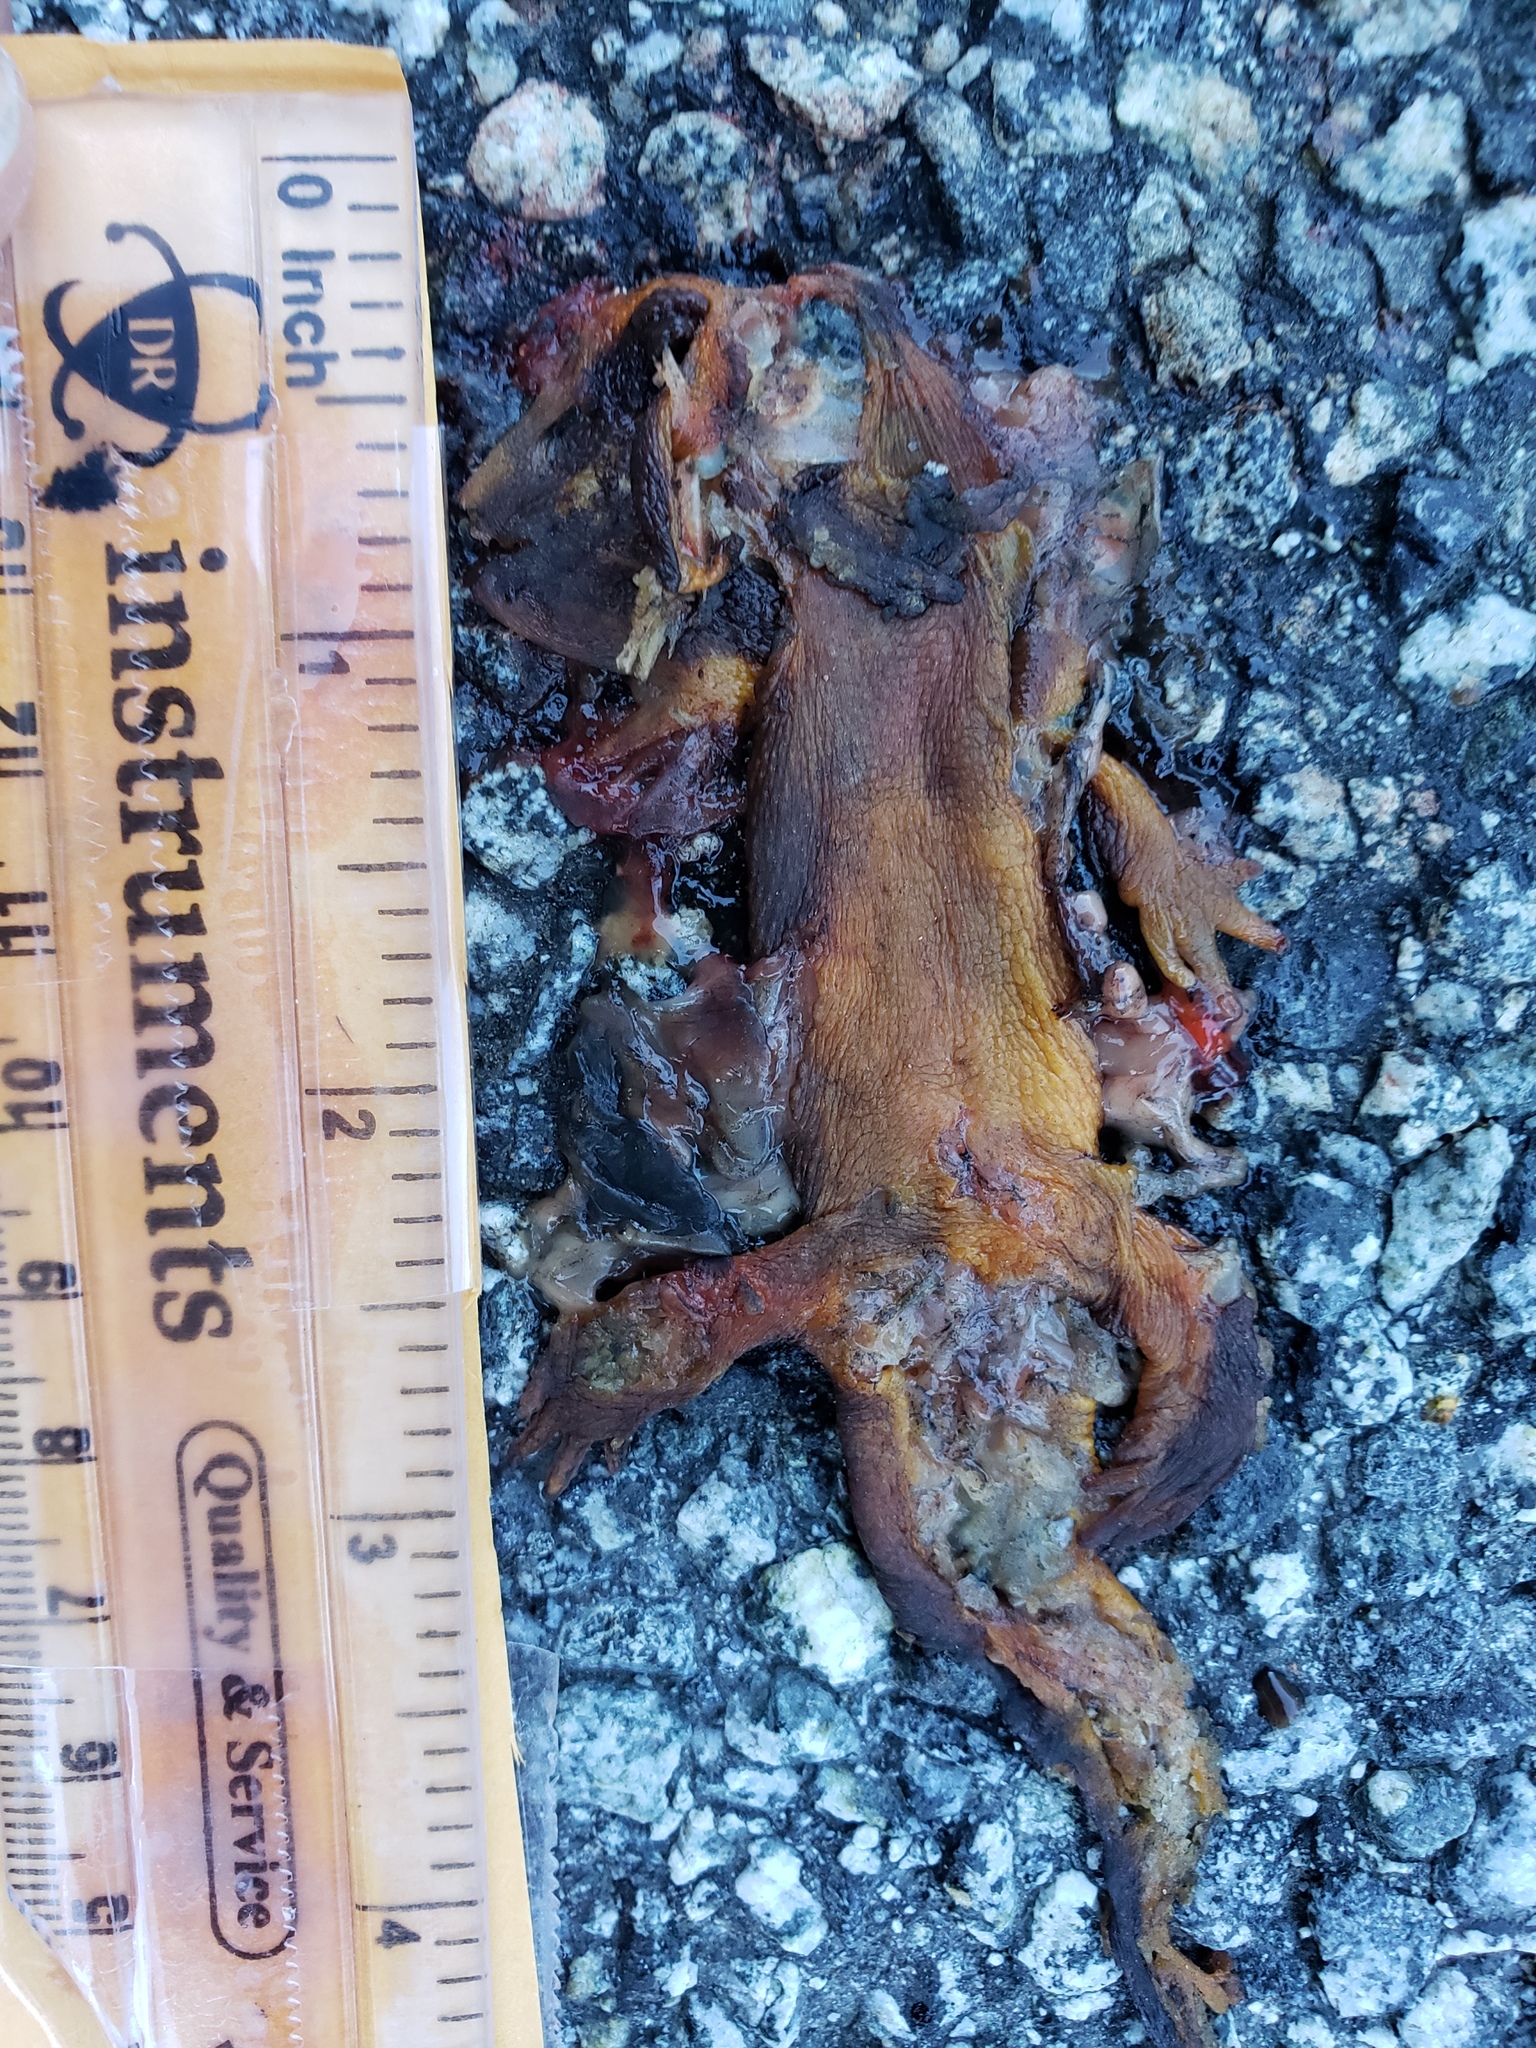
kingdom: Animalia
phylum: Chordata
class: Amphibia
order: Caudata
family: Salamandridae
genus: Taricha
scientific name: Taricha
